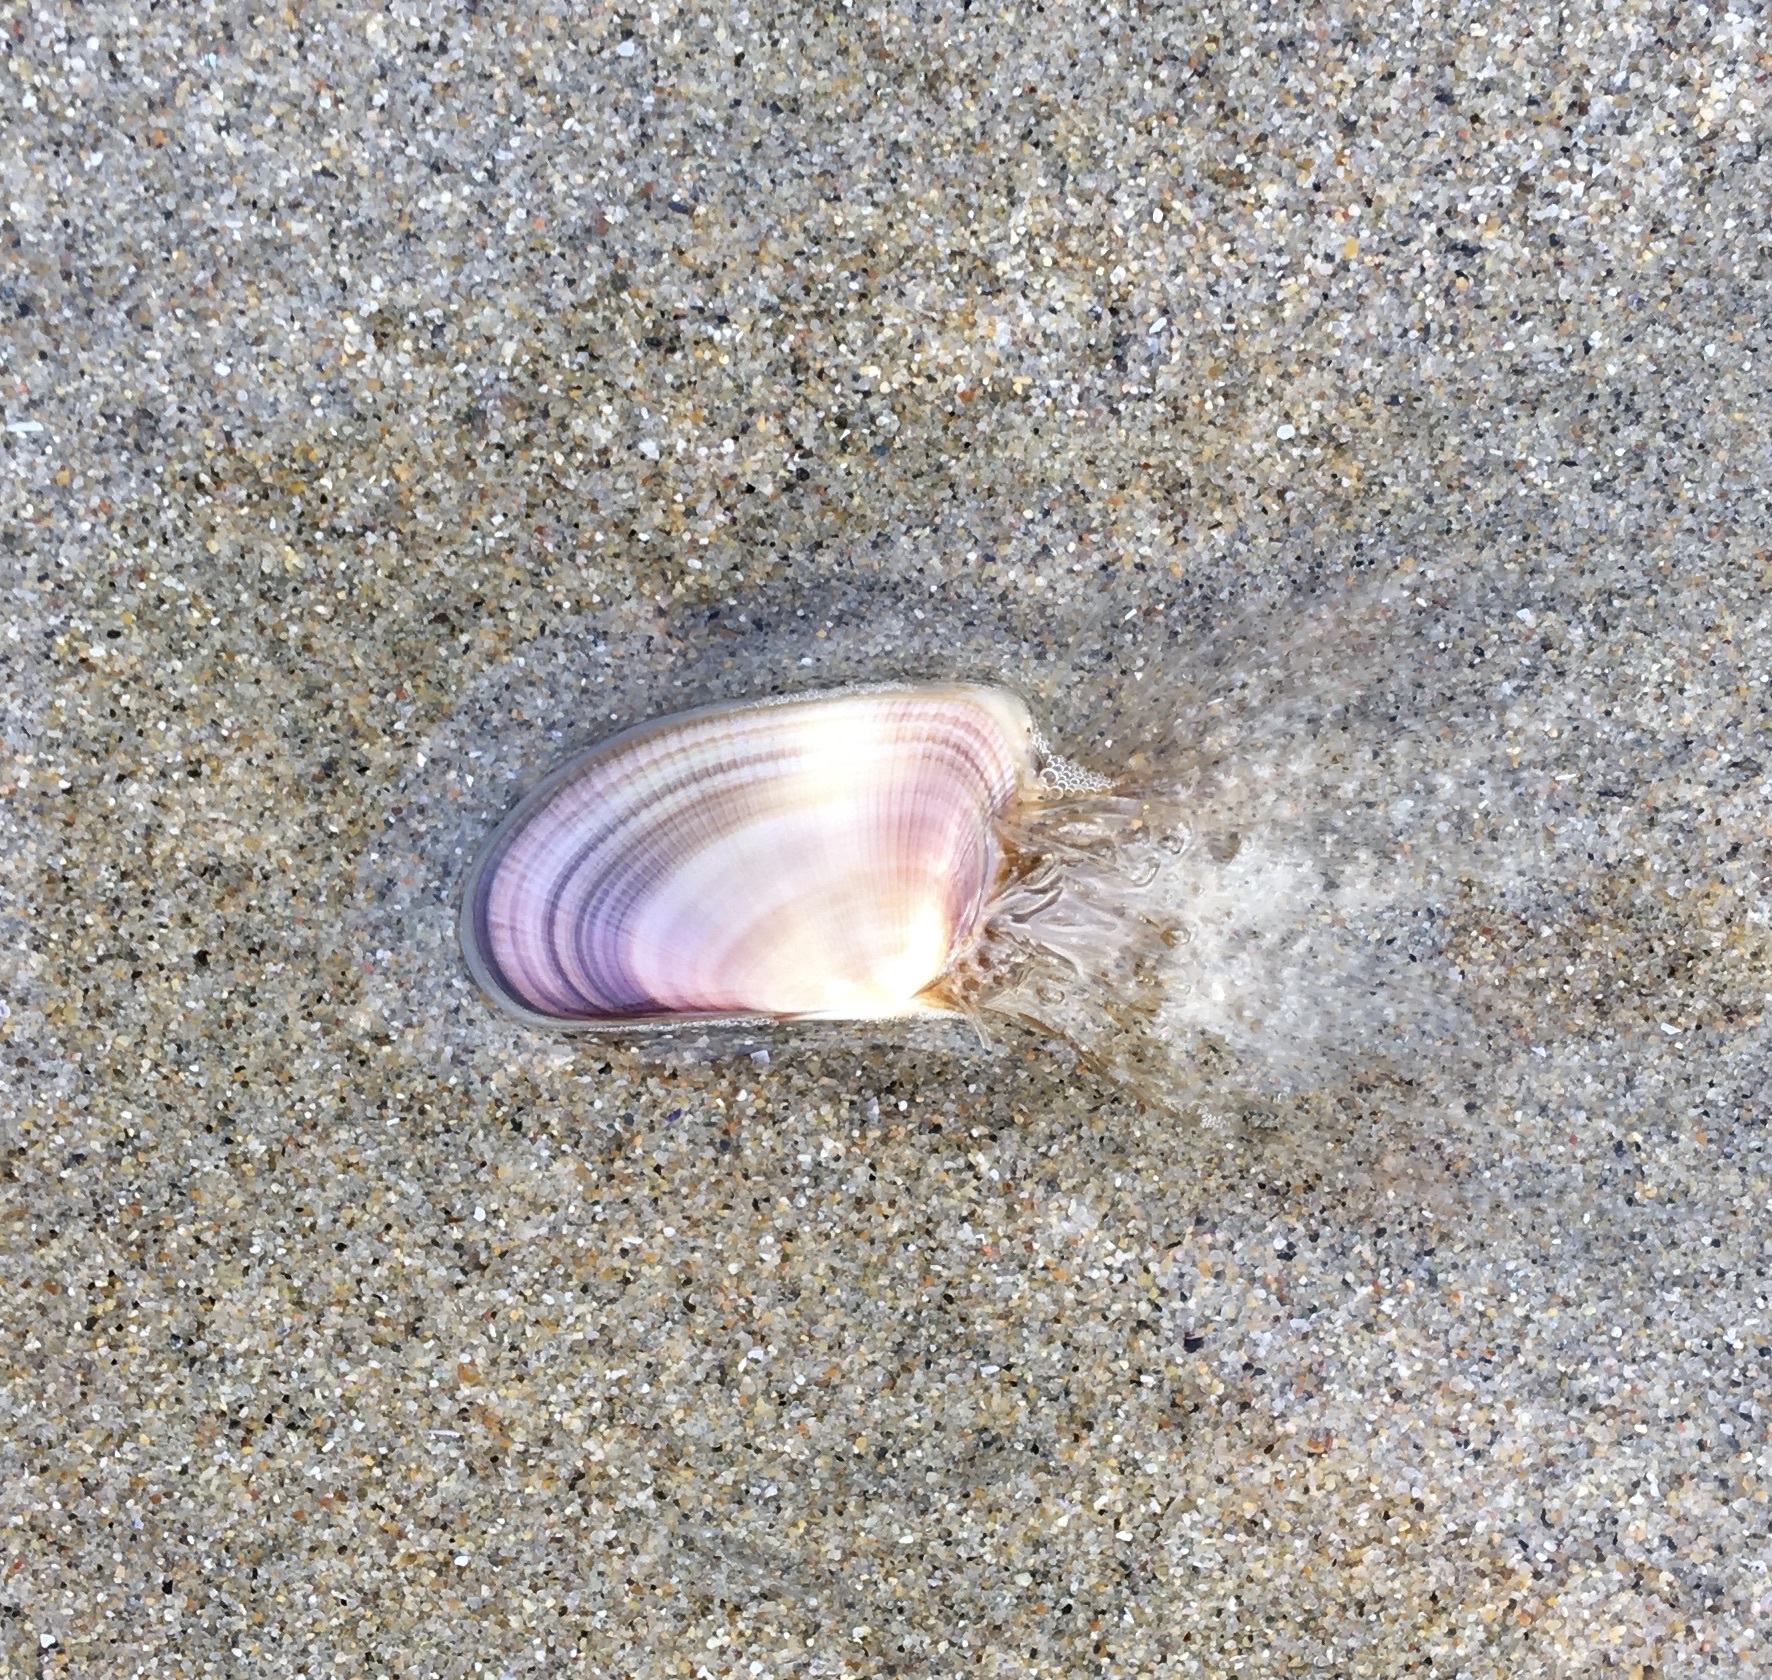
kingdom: Animalia
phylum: Mollusca
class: Bivalvia
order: Cardiida
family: Donacidae
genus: Donax
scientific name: Donax gouldii
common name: Gould beanclam
